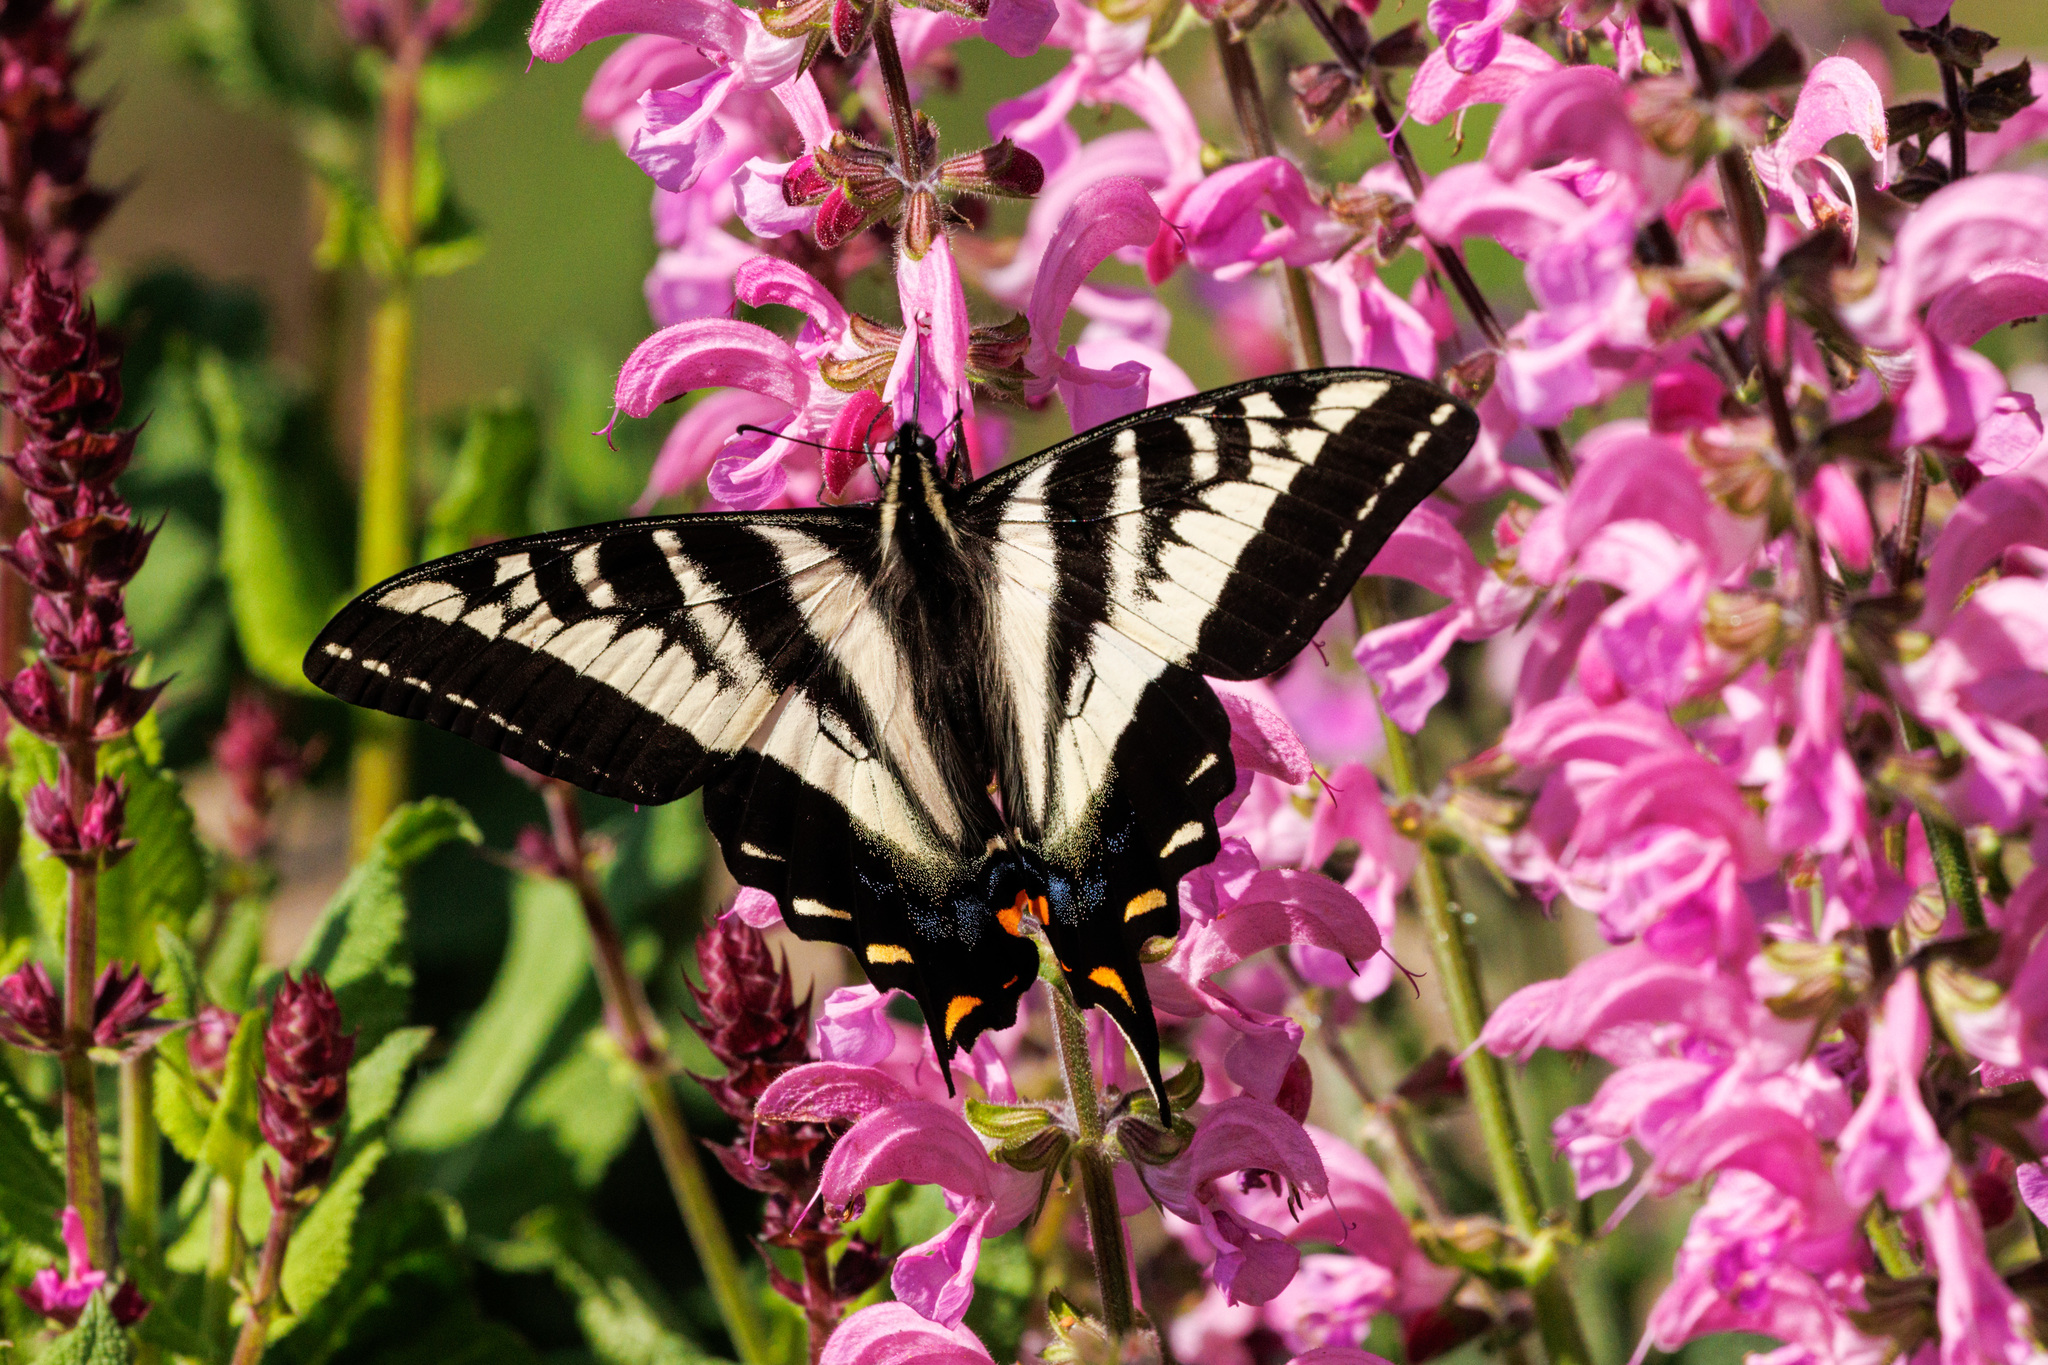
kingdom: Animalia
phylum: Arthropoda
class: Insecta
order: Lepidoptera
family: Papilionidae
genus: Papilio
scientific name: Papilio eurymedon
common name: Pale tiger swallowtail
